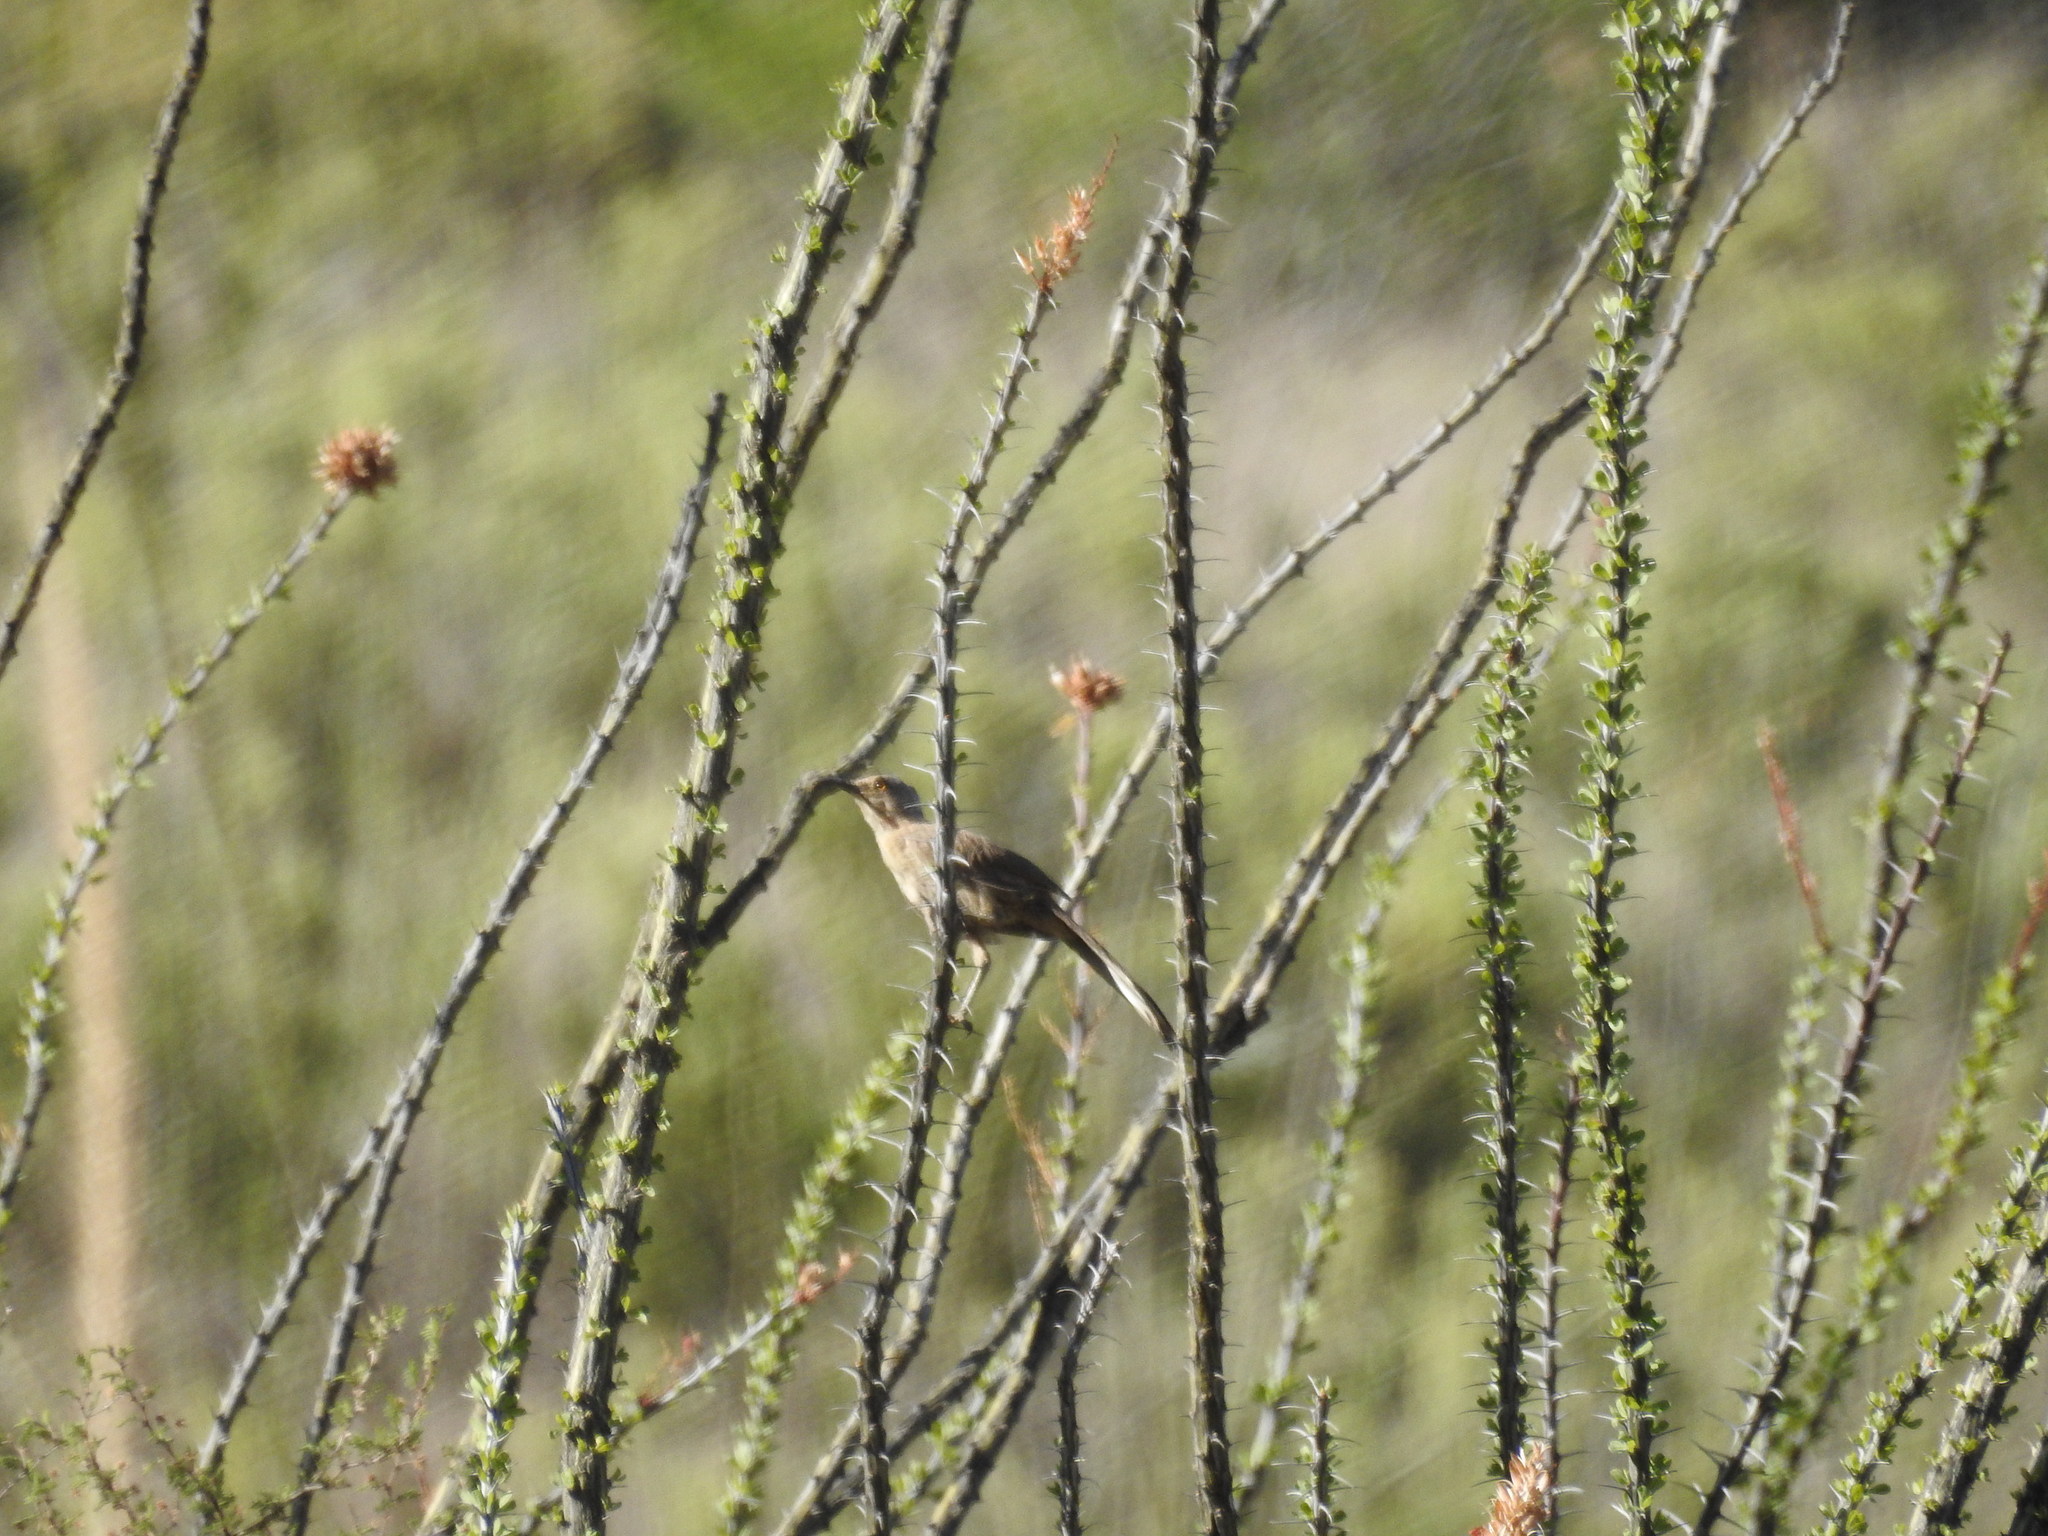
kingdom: Animalia
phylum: Chordata
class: Aves
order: Passeriformes
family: Mimidae
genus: Toxostoma
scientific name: Toxostoma curvirostre
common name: Curve-billed thrasher
